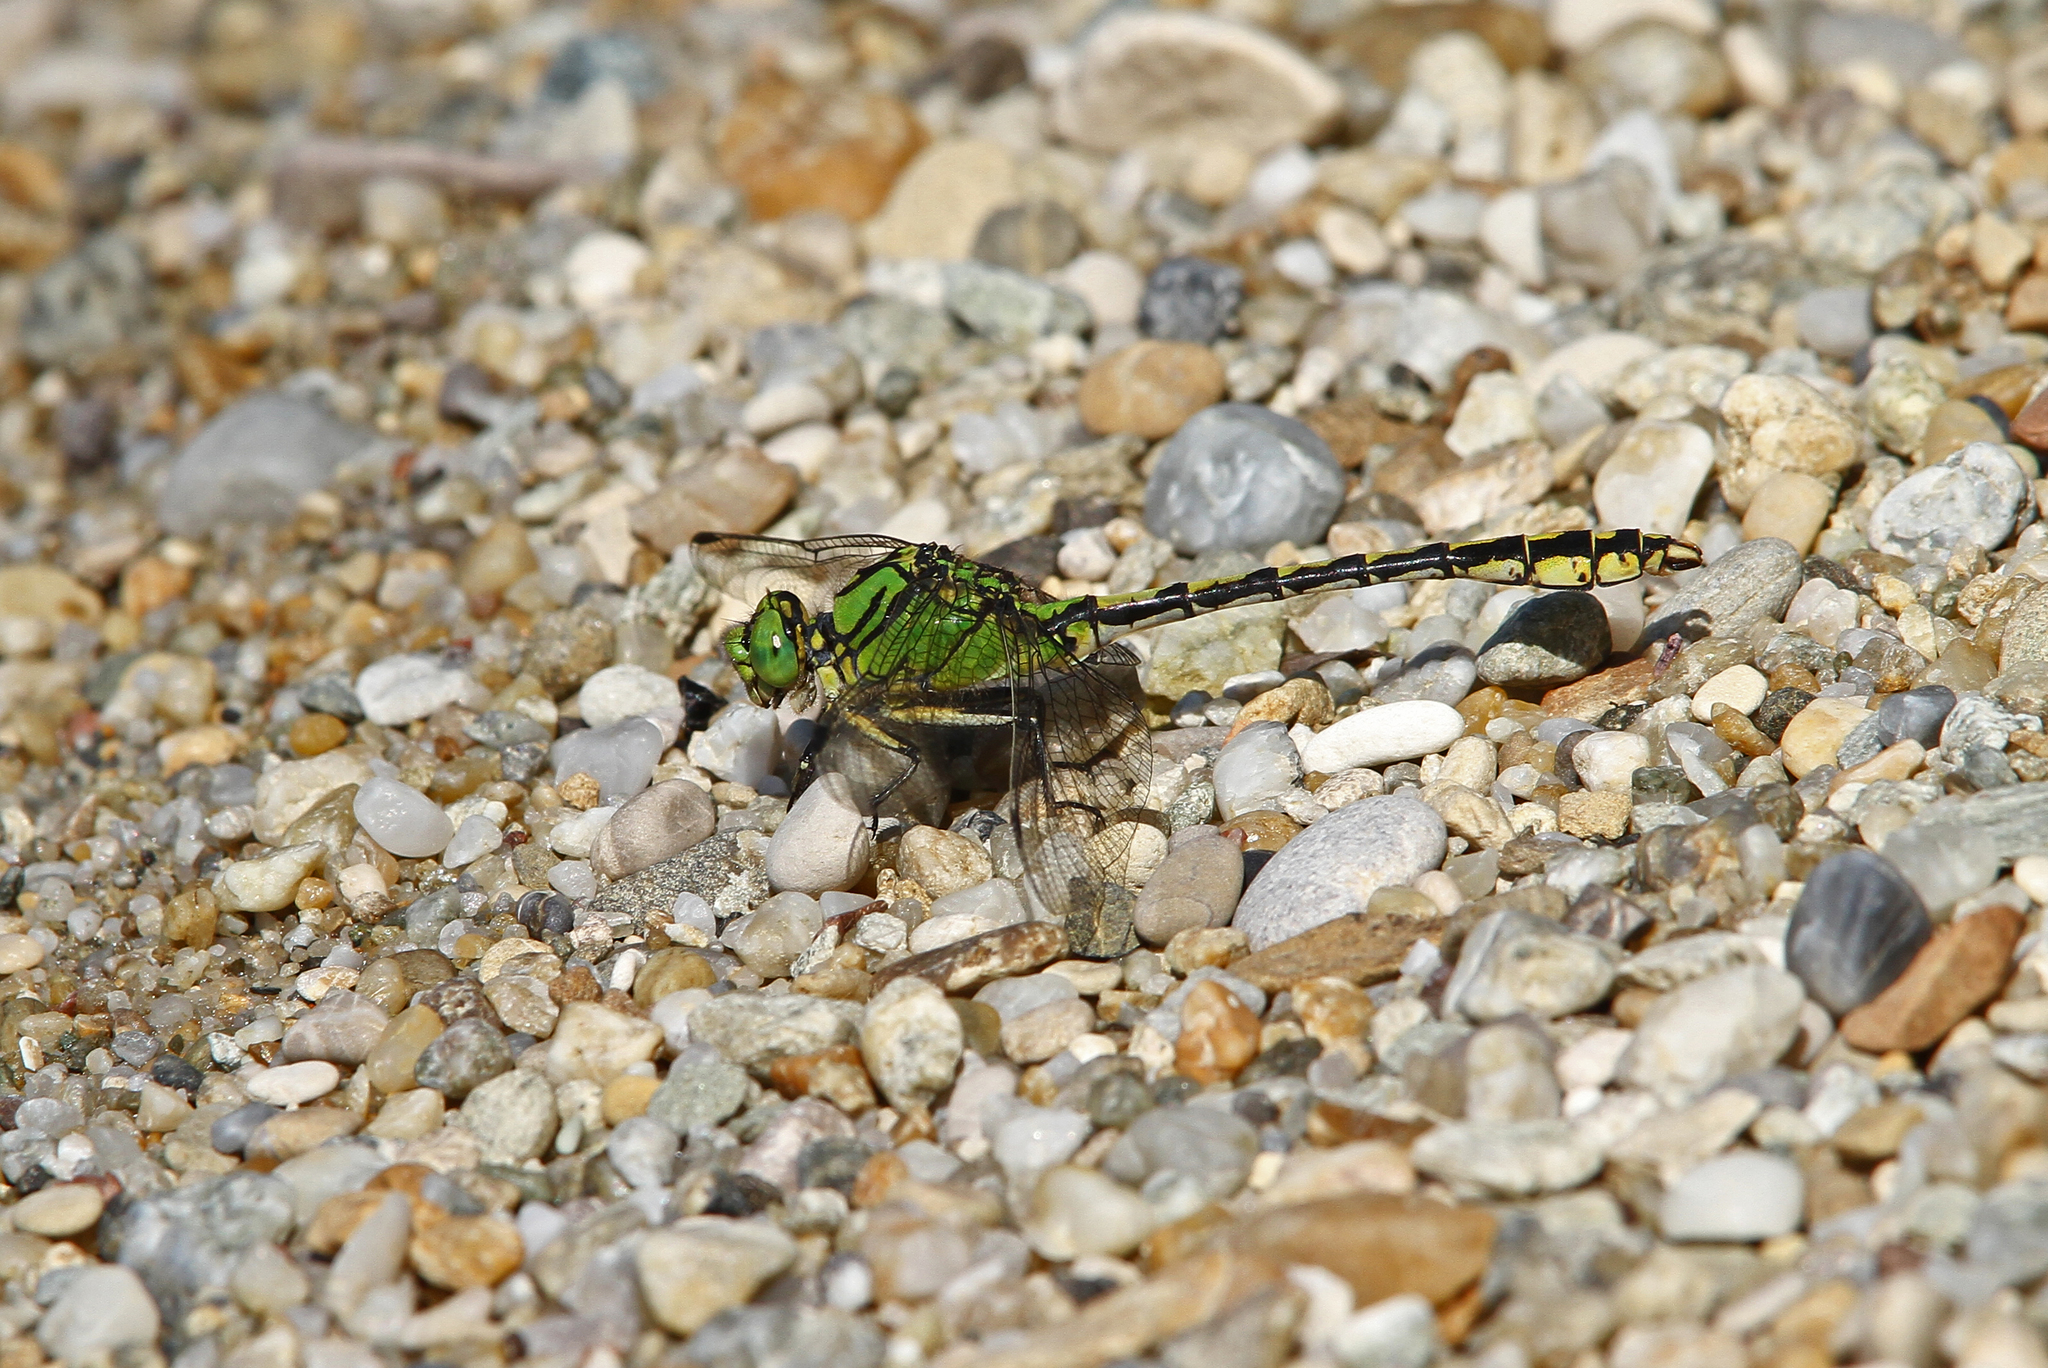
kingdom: Animalia
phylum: Arthropoda
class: Insecta
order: Odonata
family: Gomphidae
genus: Ophiogomphus
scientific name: Ophiogomphus cecilia
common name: Green snaketail
